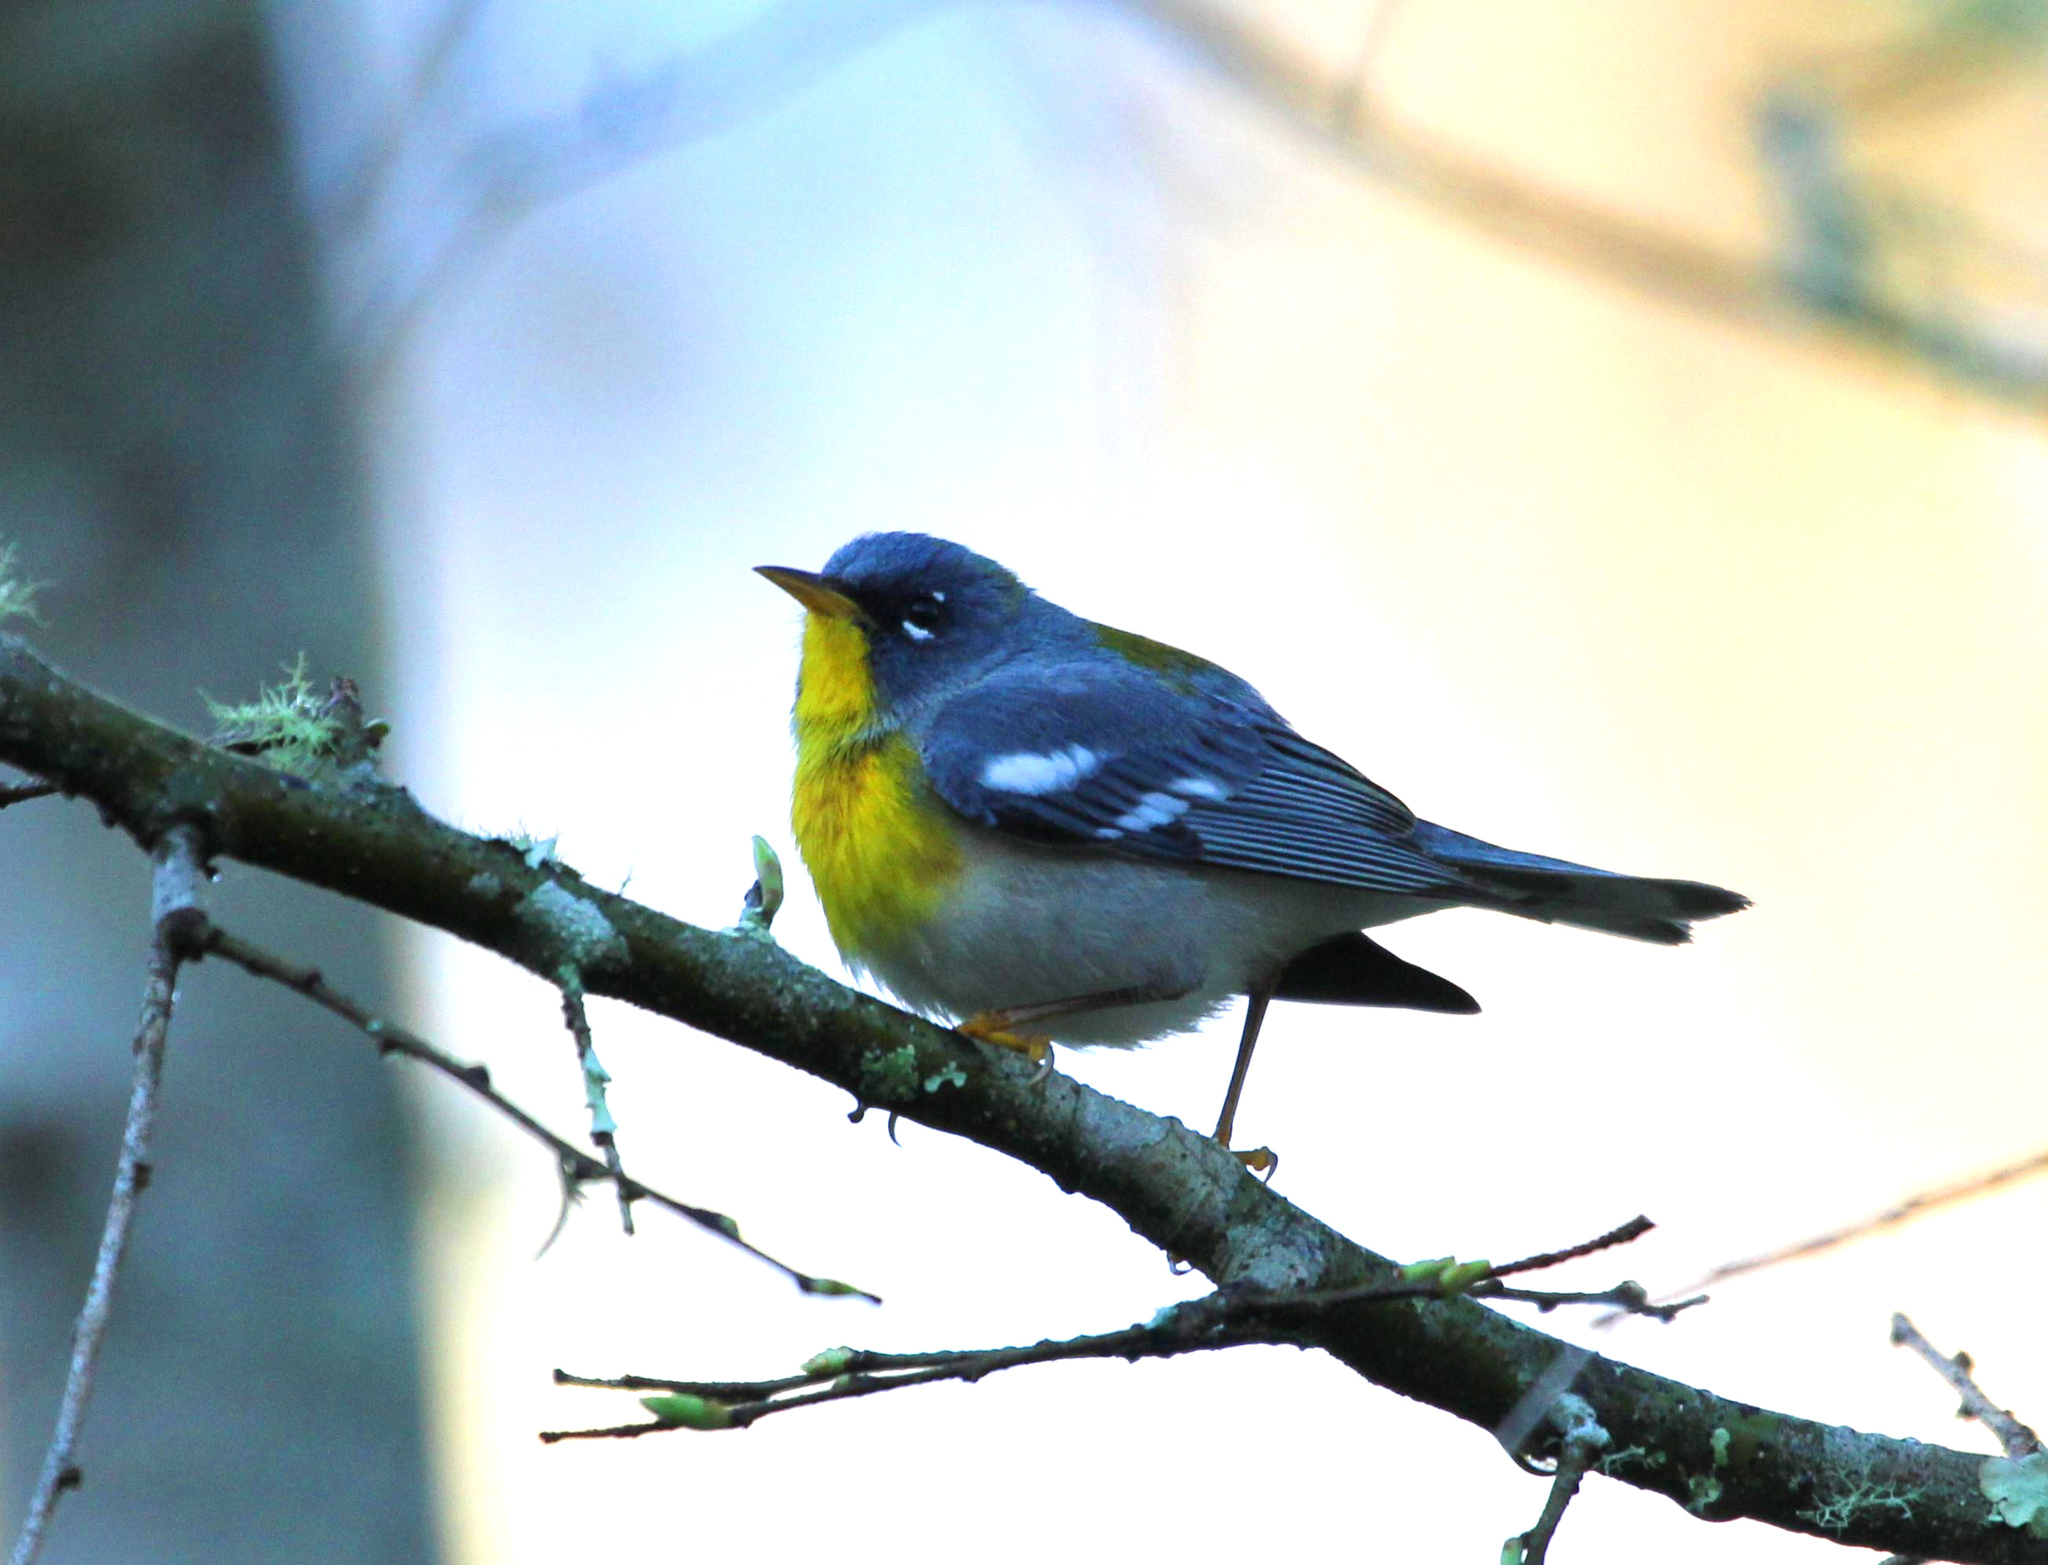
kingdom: Animalia
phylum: Chordata
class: Aves
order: Passeriformes
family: Parulidae
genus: Setophaga
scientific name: Setophaga americana
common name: Northern parula
